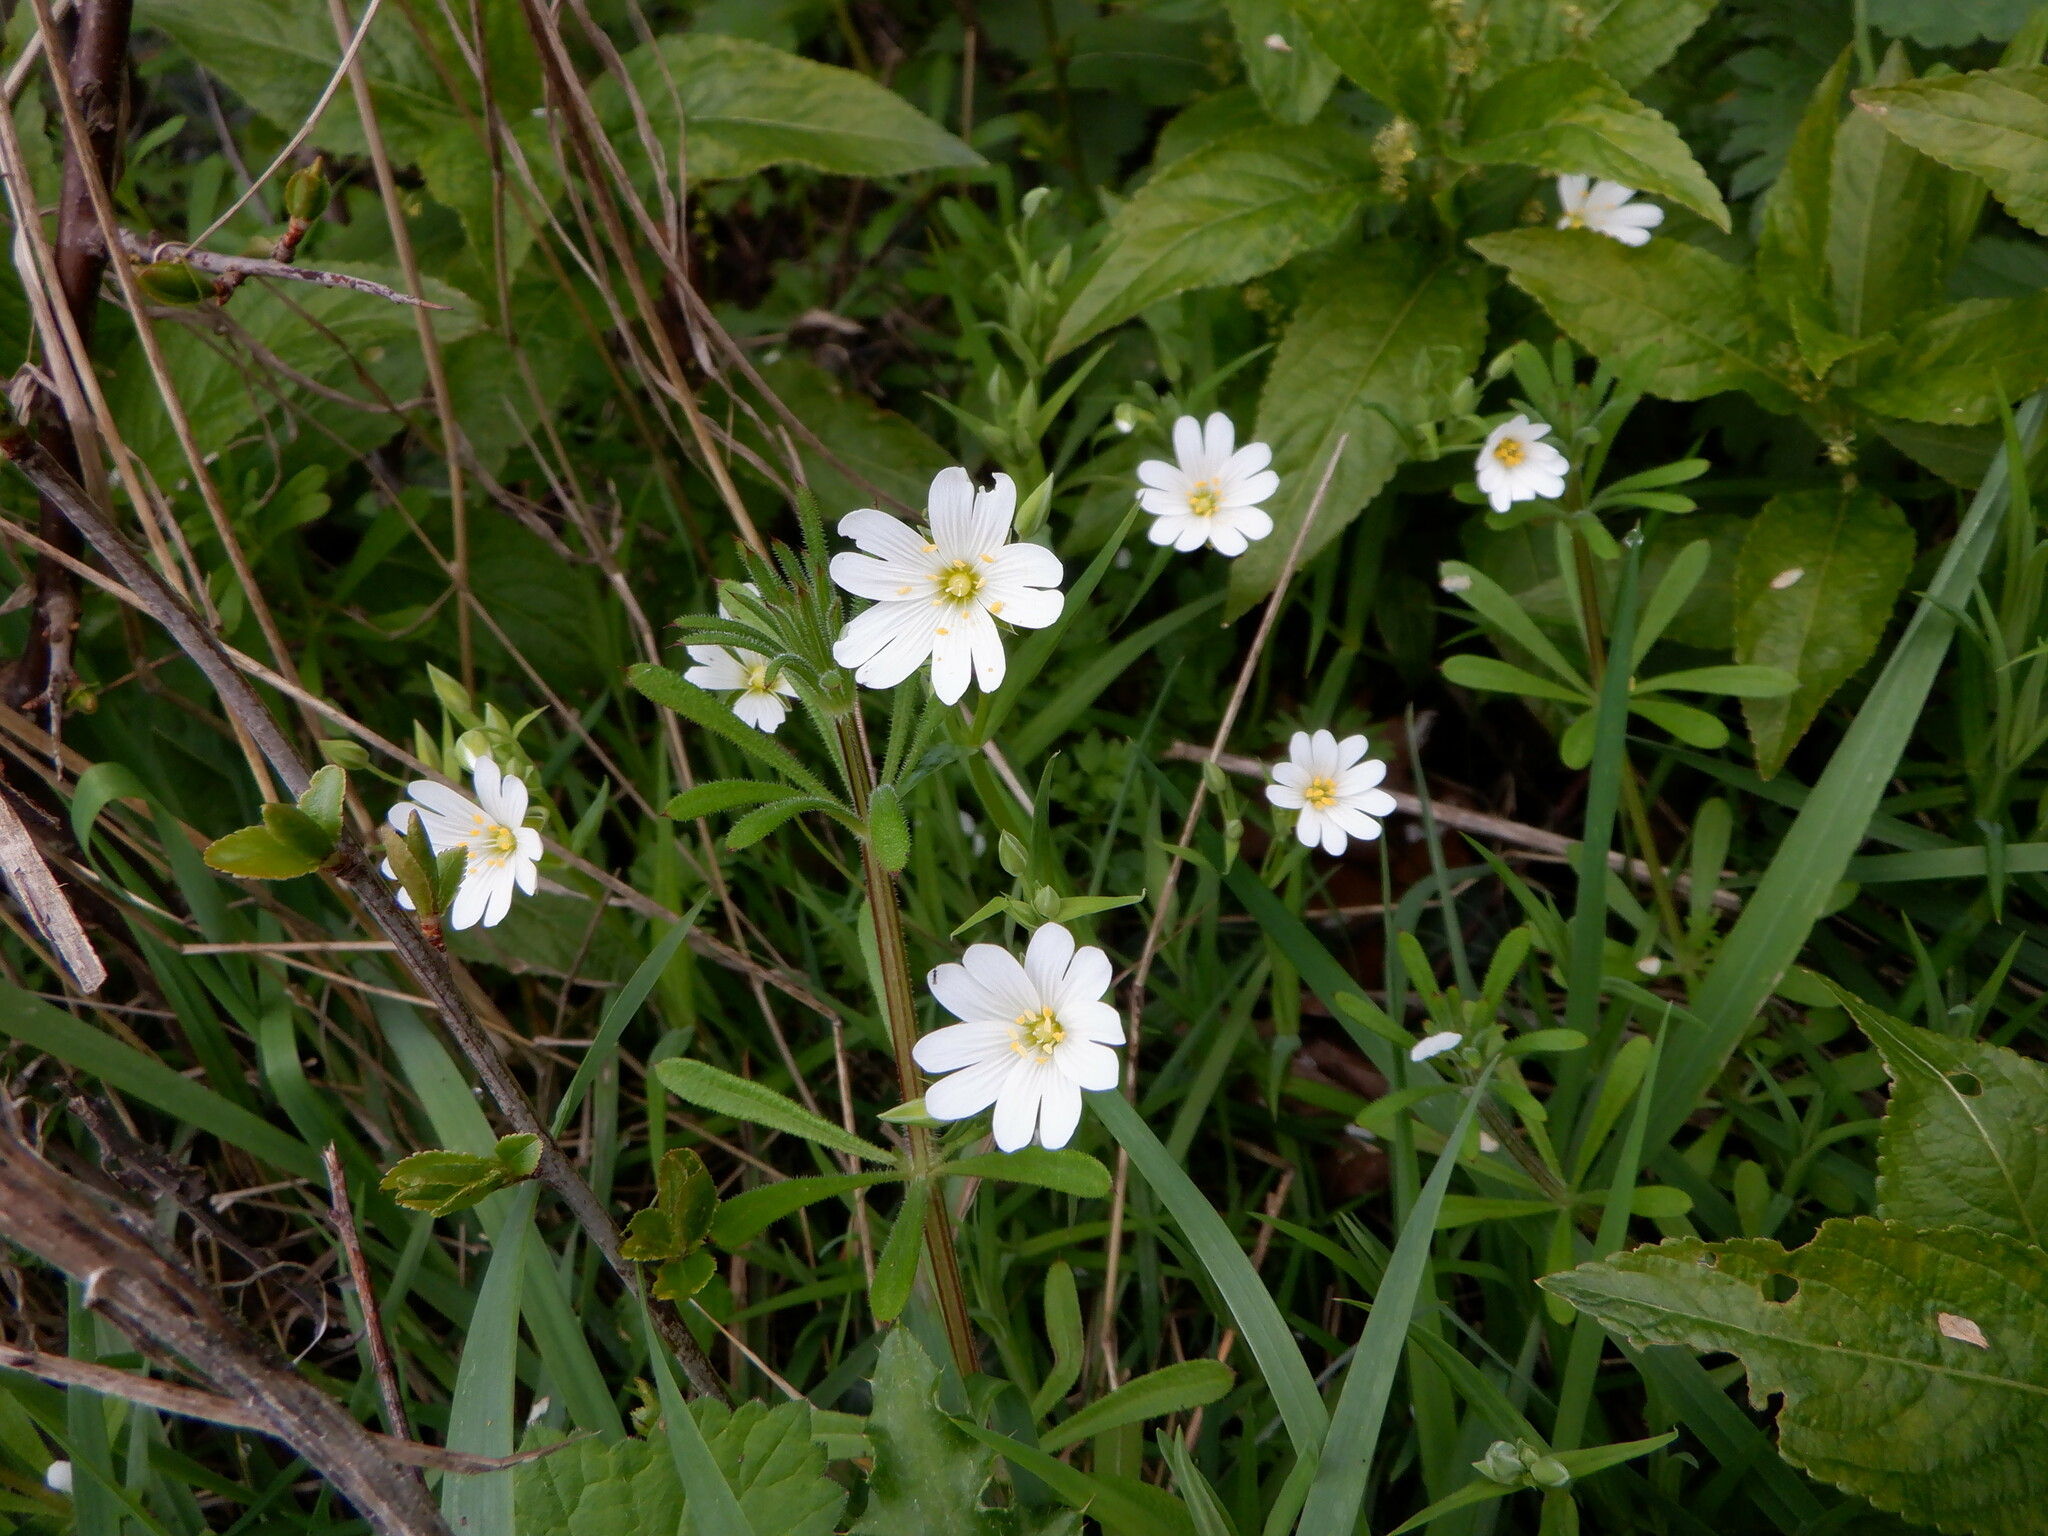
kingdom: Plantae
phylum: Tracheophyta
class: Magnoliopsida
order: Caryophyllales
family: Caryophyllaceae
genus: Rabelera
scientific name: Rabelera holostea
